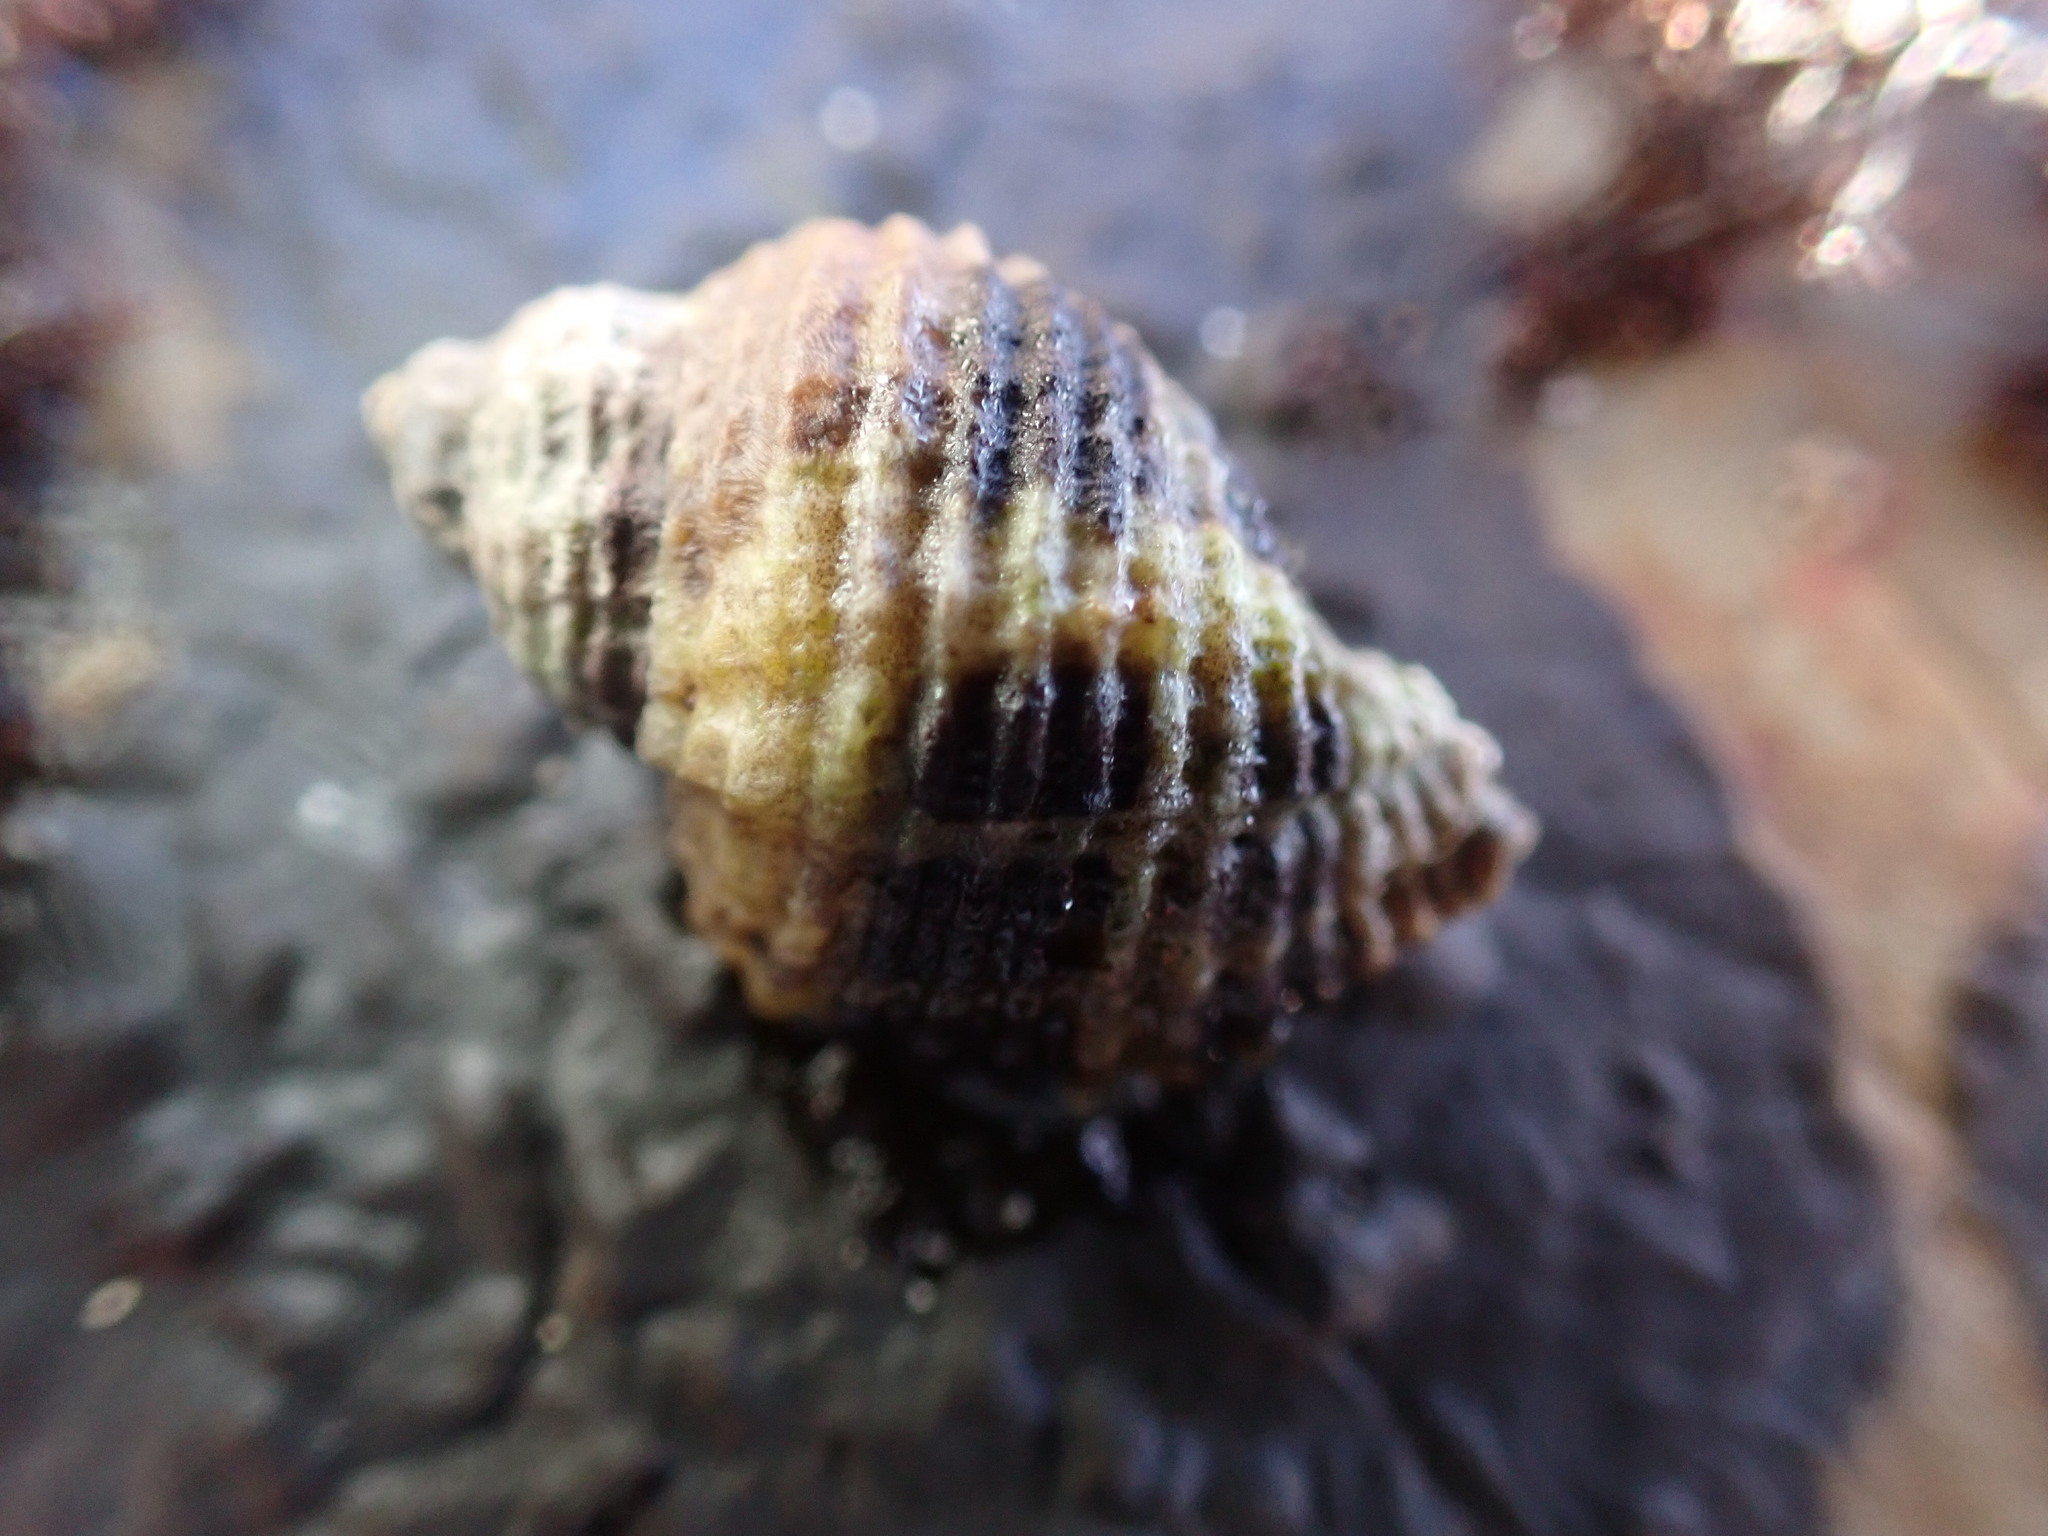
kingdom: Animalia
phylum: Mollusca
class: Gastropoda
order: Neogastropoda
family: Muricidae
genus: Paciocinebrina
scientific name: Paciocinebrina circumtexta
